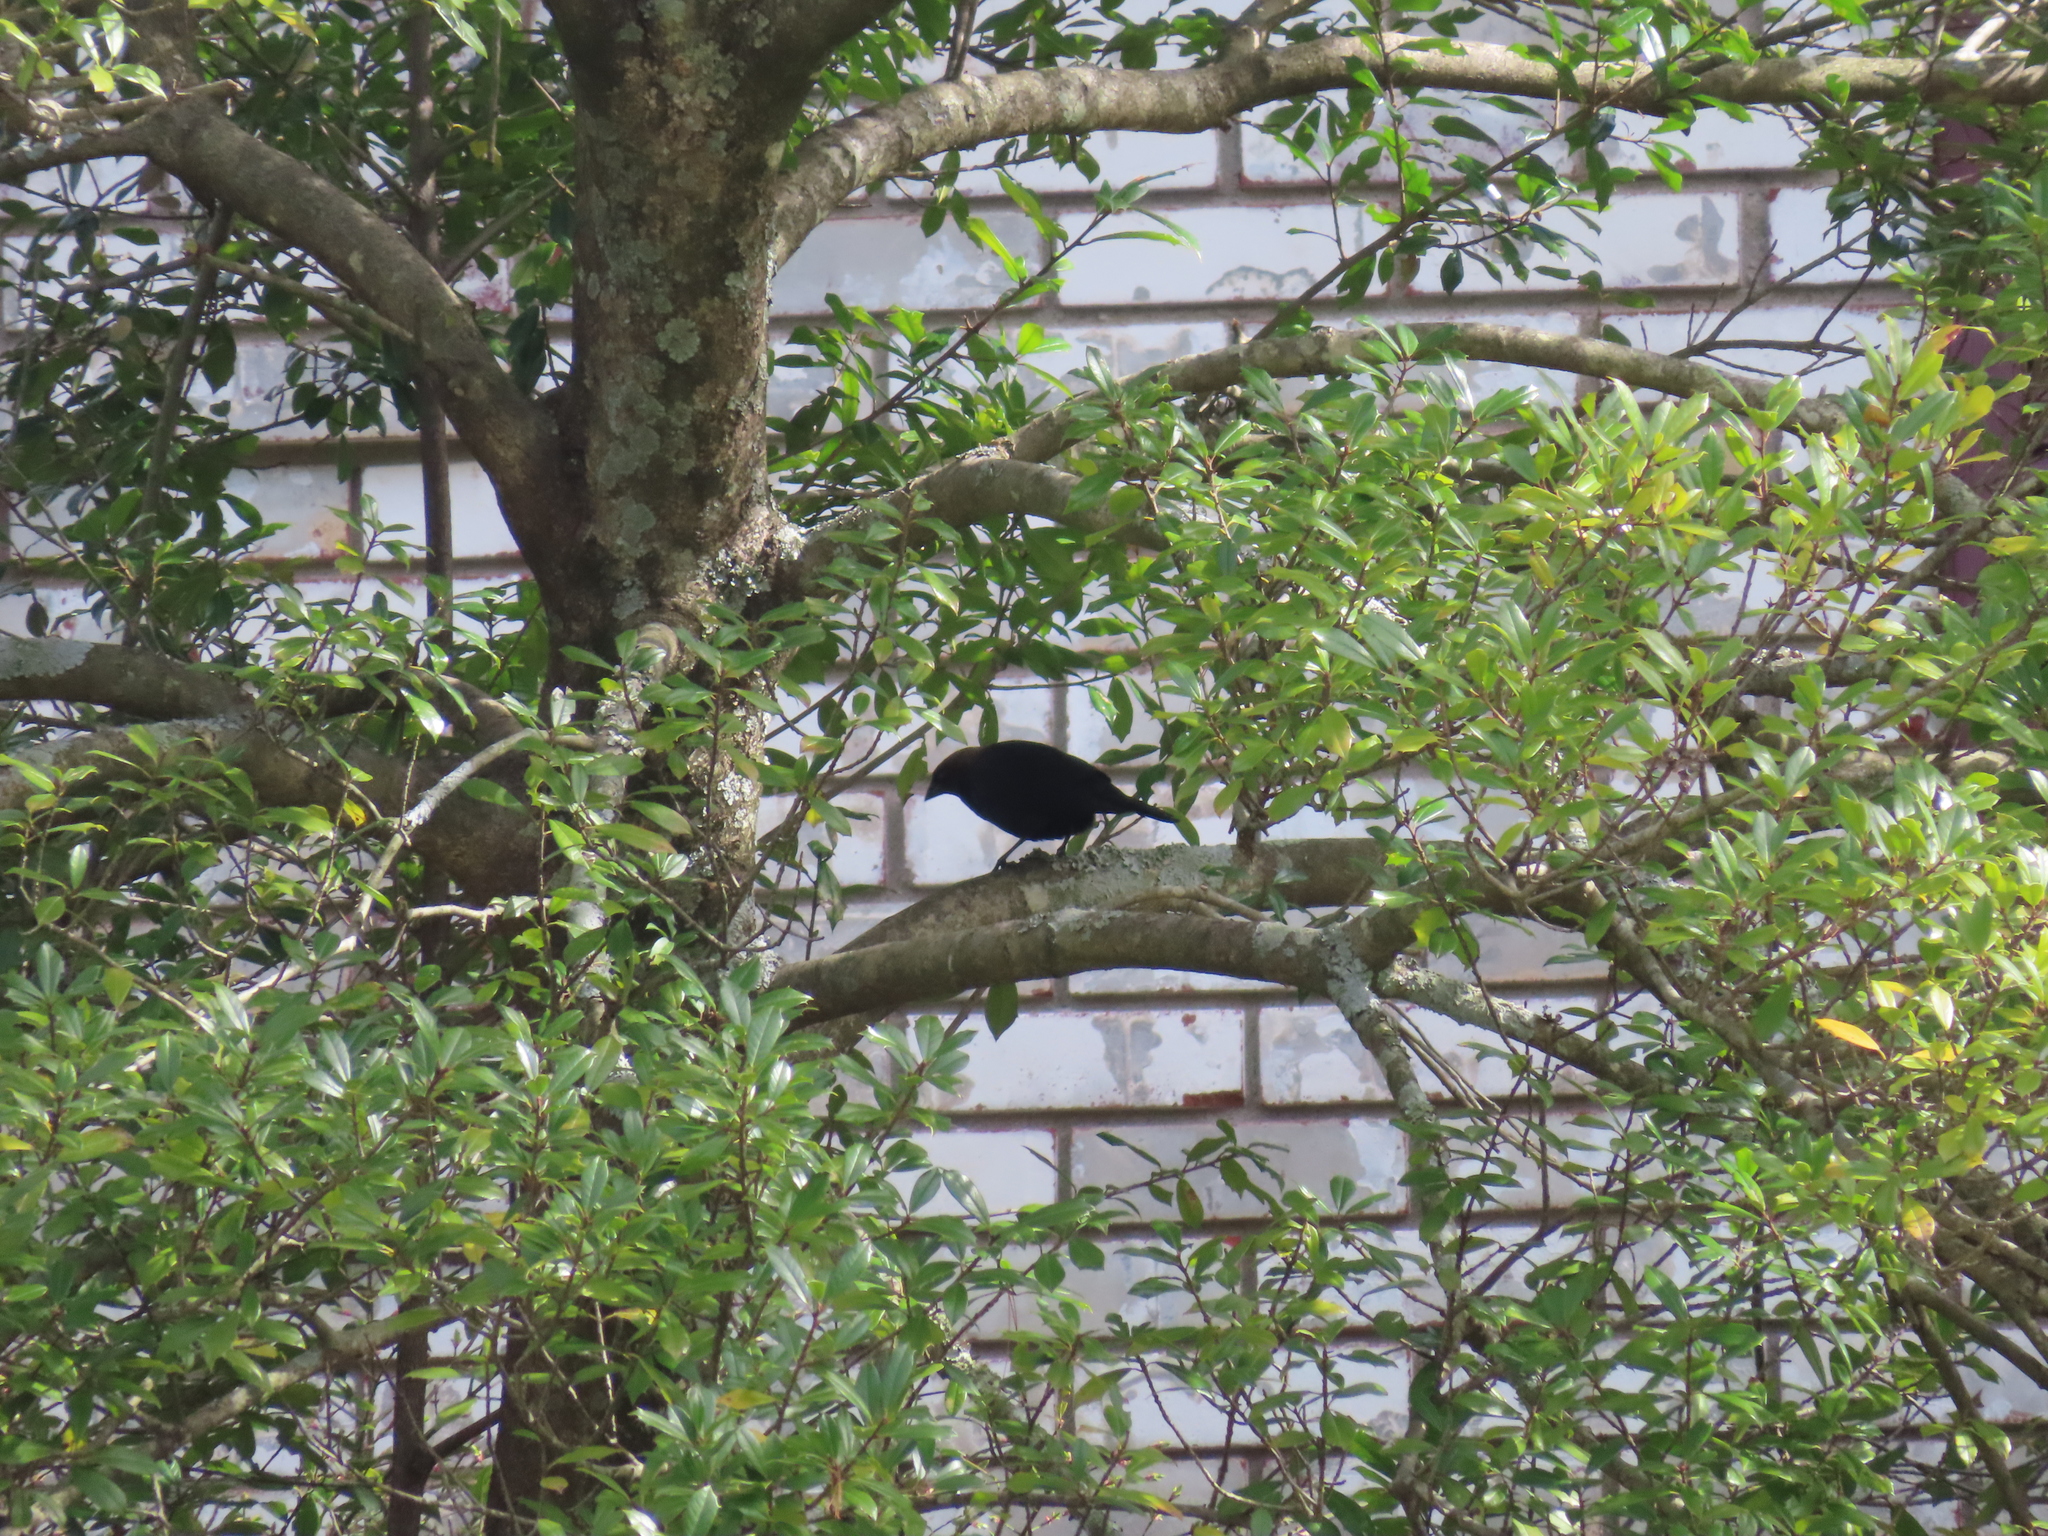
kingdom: Animalia
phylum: Chordata
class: Aves
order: Passeriformes
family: Icteridae
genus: Molothrus
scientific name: Molothrus ater
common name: Brown-headed cowbird
